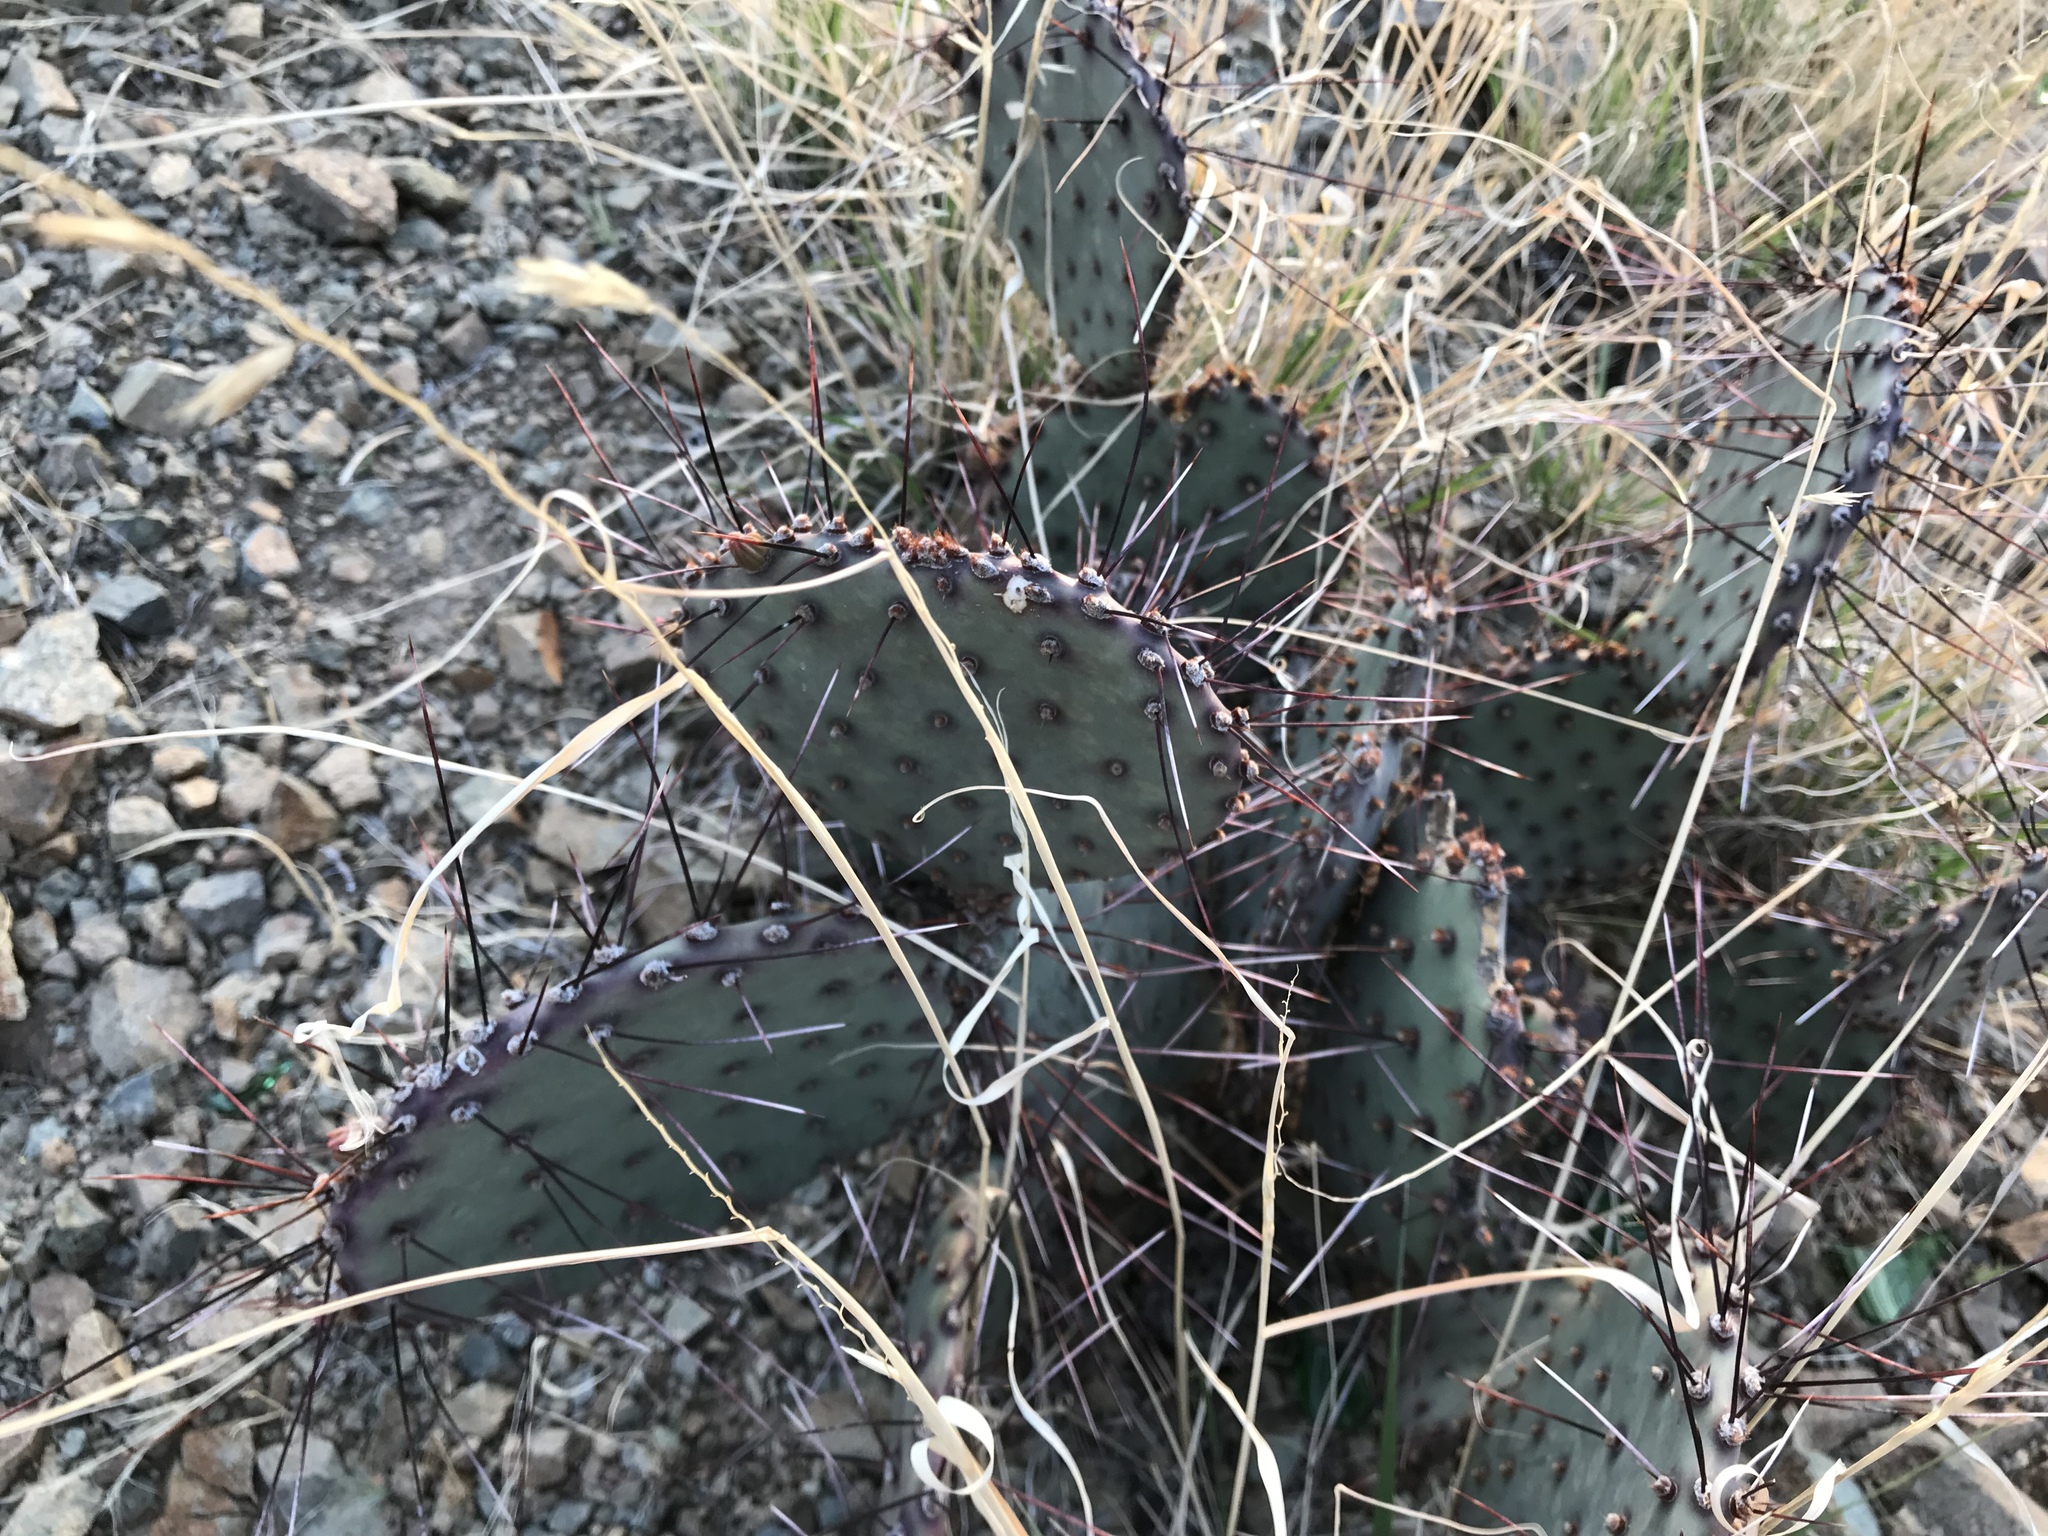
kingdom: Plantae
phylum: Tracheophyta
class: Magnoliopsida
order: Caryophyllales
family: Cactaceae
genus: Opuntia
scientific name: Opuntia macrocentra
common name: Purple prickly-pear
